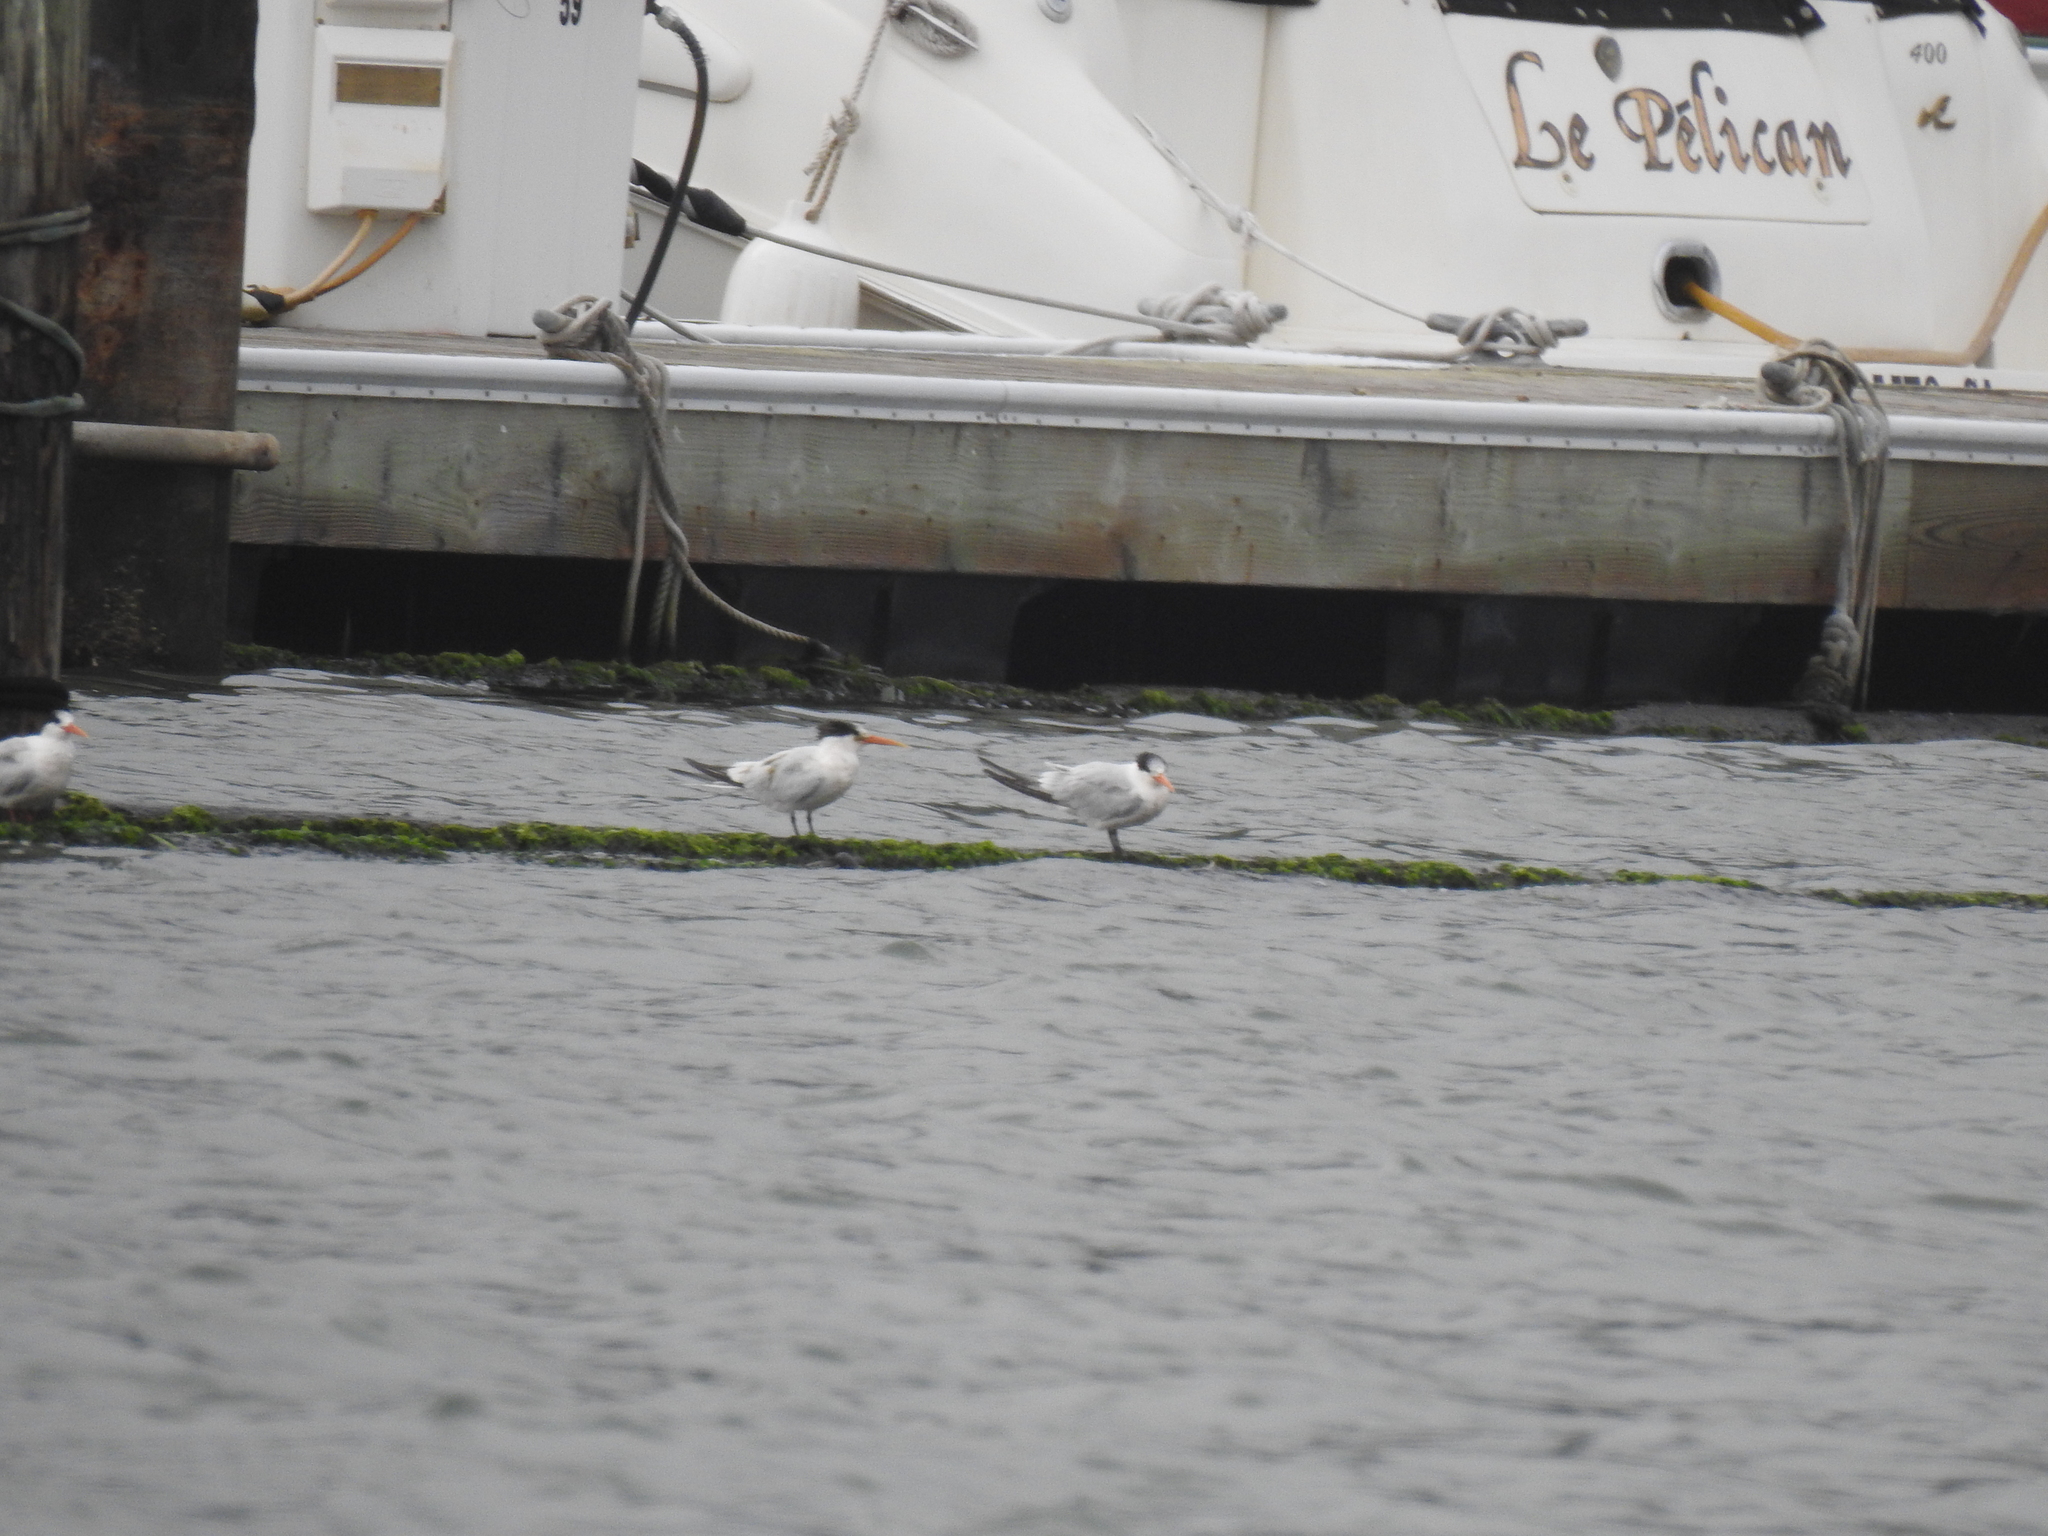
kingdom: Animalia
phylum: Chordata
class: Aves
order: Charadriiformes
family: Laridae
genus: Thalasseus
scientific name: Thalasseus elegans
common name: Elegant tern
